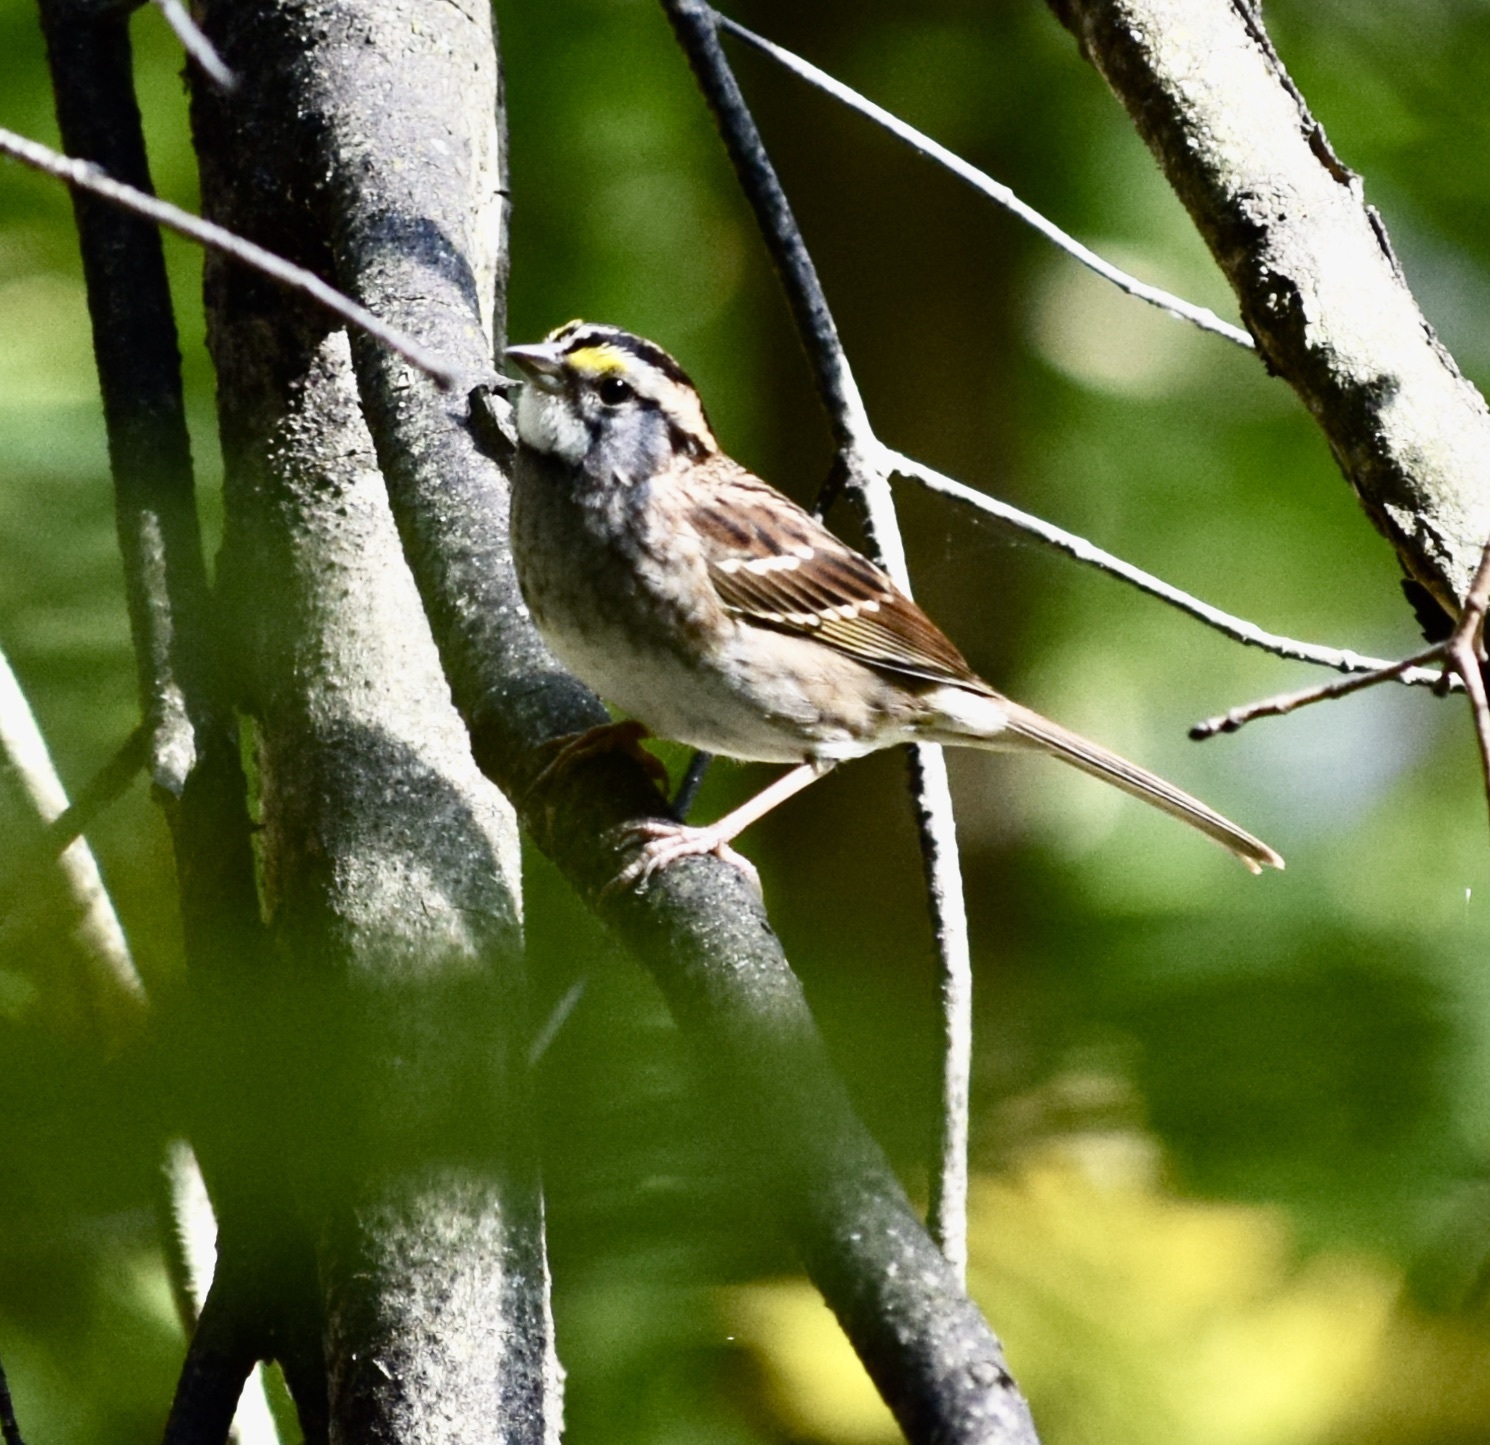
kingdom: Animalia
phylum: Chordata
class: Aves
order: Passeriformes
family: Passerellidae
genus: Zonotrichia
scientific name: Zonotrichia albicollis
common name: White-throated sparrow
